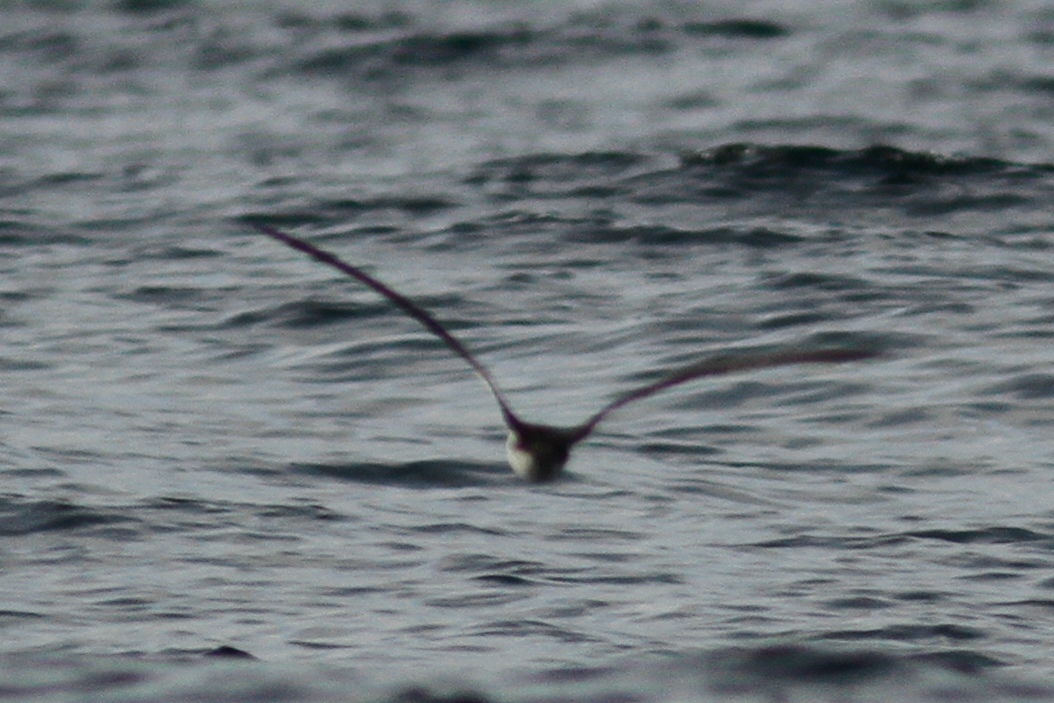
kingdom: Animalia
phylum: Chordata
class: Aves
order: Procellariiformes
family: Procellariidae
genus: Pterodroma
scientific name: Pterodroma phaeopygia
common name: Galapagos petrel
